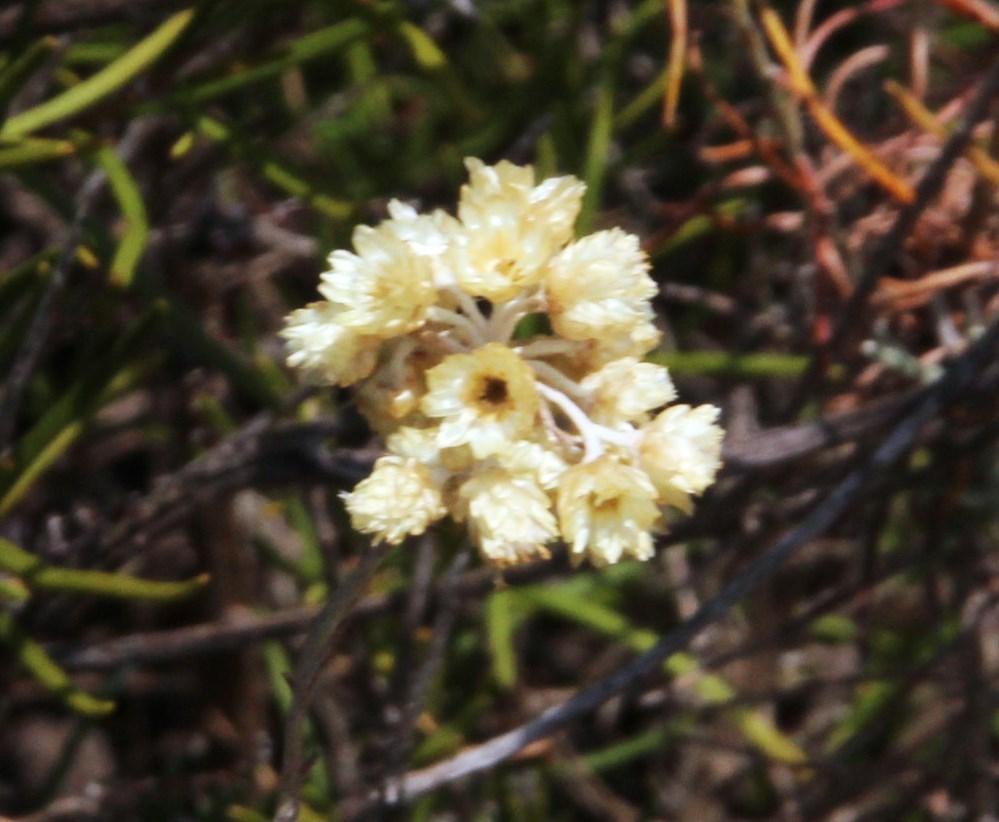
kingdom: Plantae
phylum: Tracheophyta
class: Magnoliopsida
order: Asterales
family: Asteraceae
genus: Helichrysum
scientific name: Helichrysum stoechas
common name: Goldilocks
